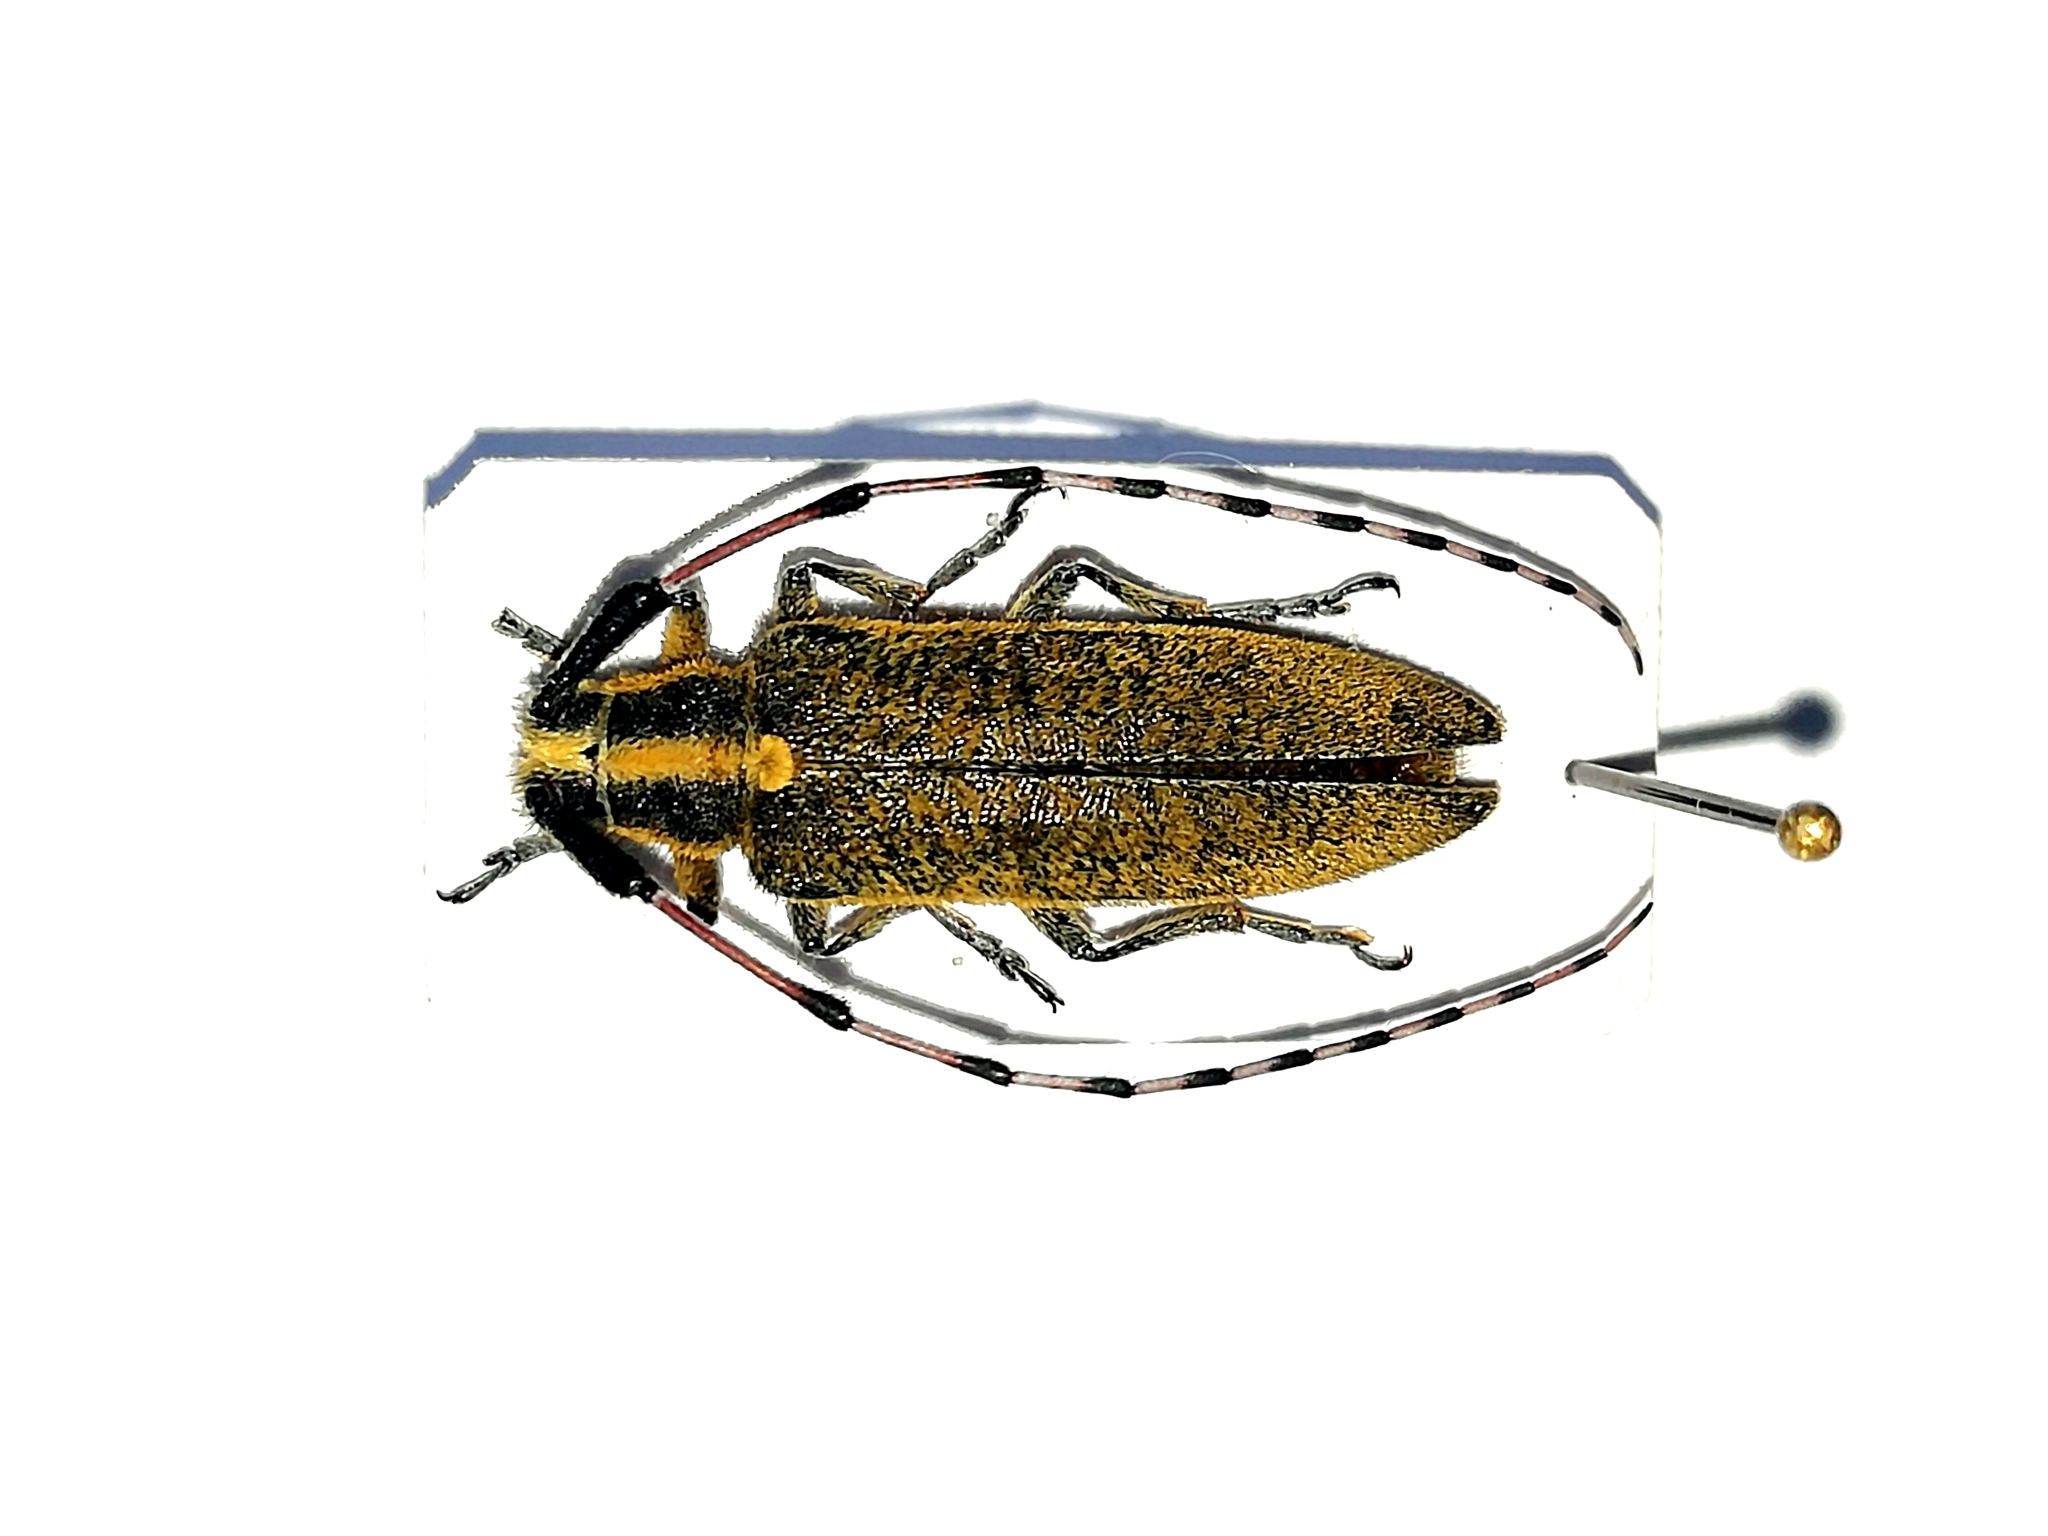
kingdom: Animalia
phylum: Arthropoda
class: Insecta
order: Coleoptera
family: Cerambycidae
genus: Agapanthia
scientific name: Agapanthia dahlii
